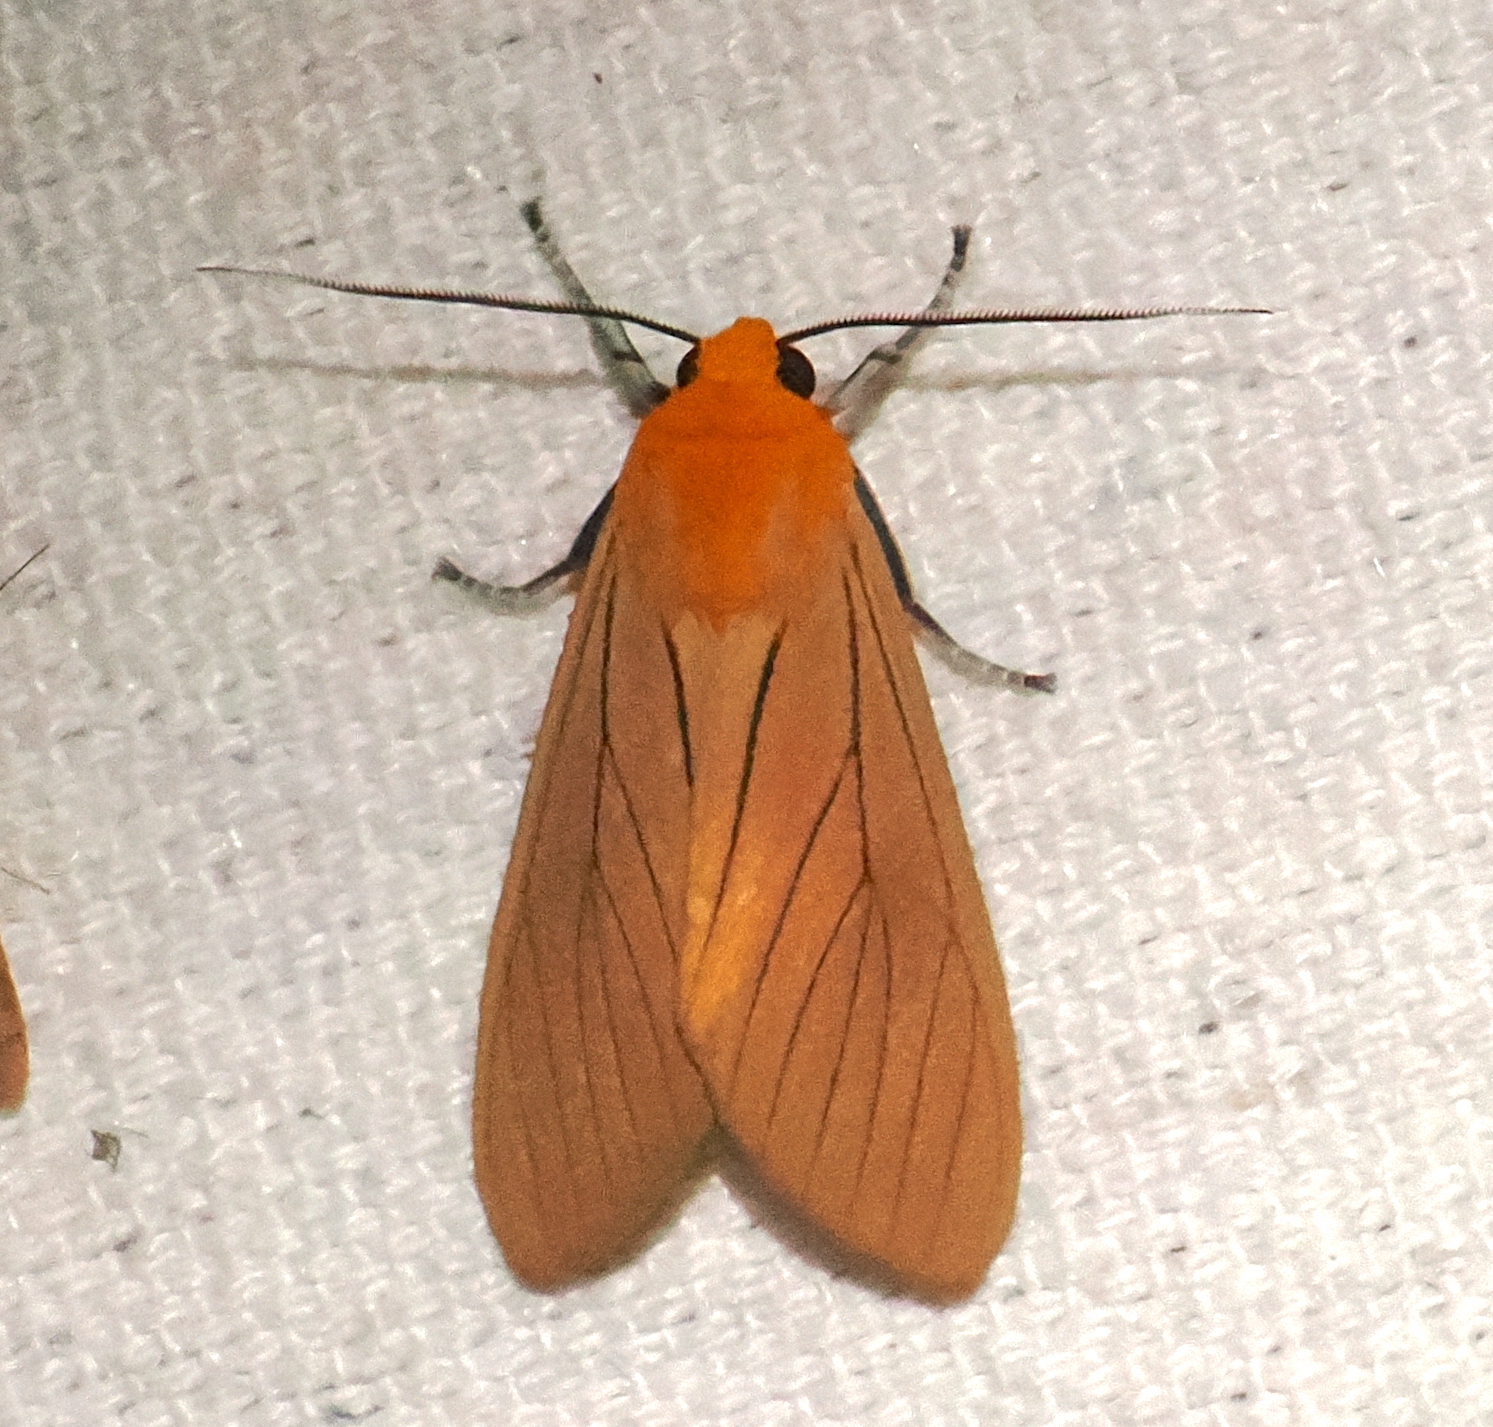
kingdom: Animalia
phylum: Arthropoda
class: Insecta
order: Lepidoptera
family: Erebidae
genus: Melese
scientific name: Melese
